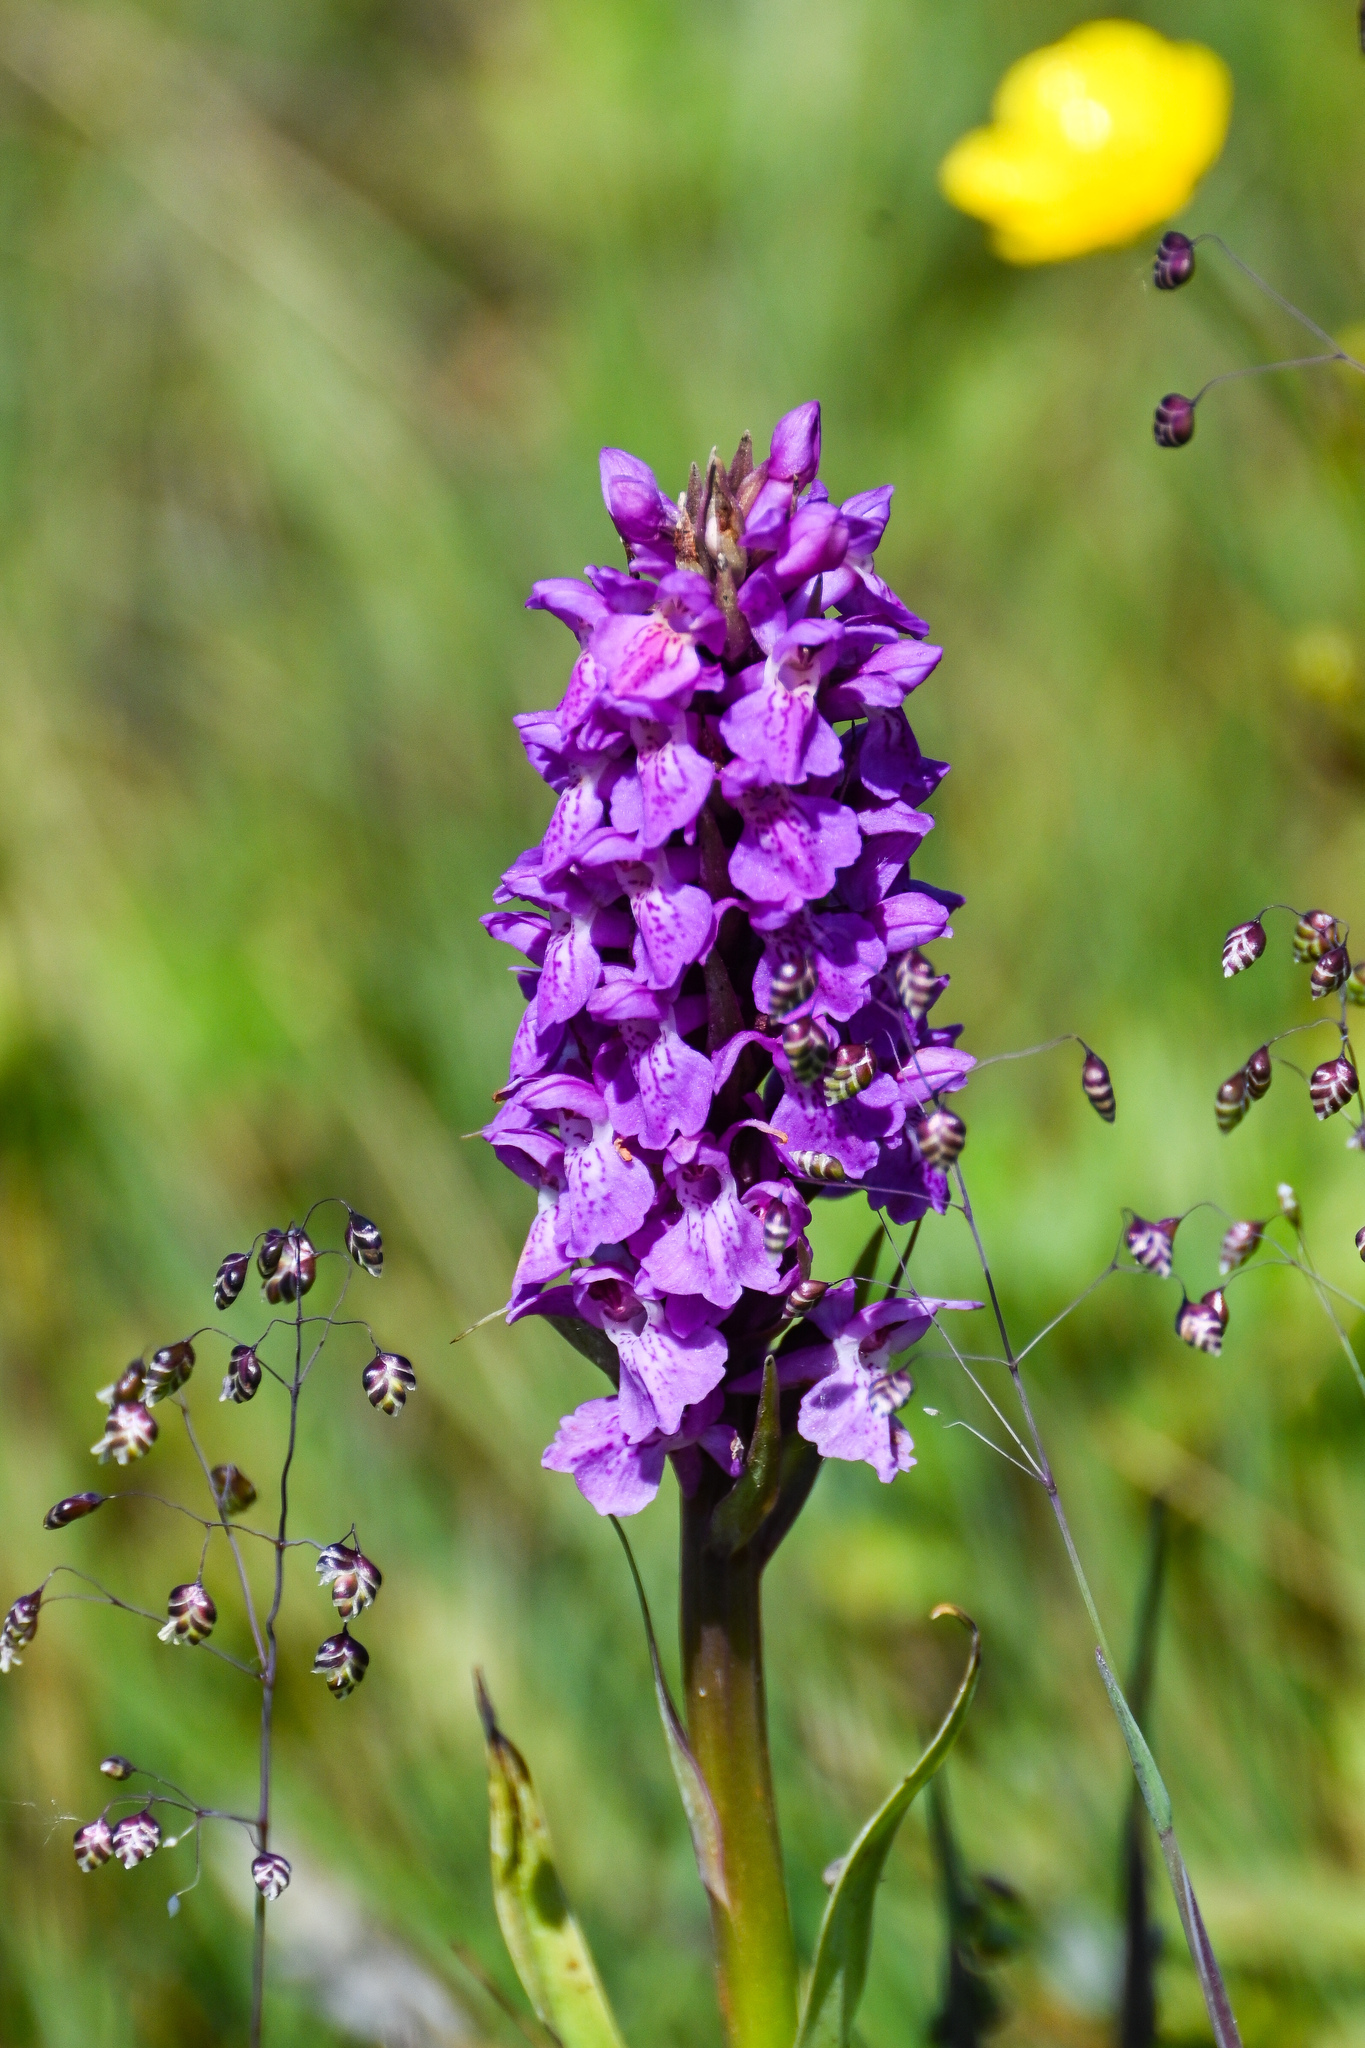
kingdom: Plantae
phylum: Tracheophyta
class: Liliopsida
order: Asparagales
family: Orchidaceae
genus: Dactylorhiza
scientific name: Dactylorhiza majalis
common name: Marsh orchid
